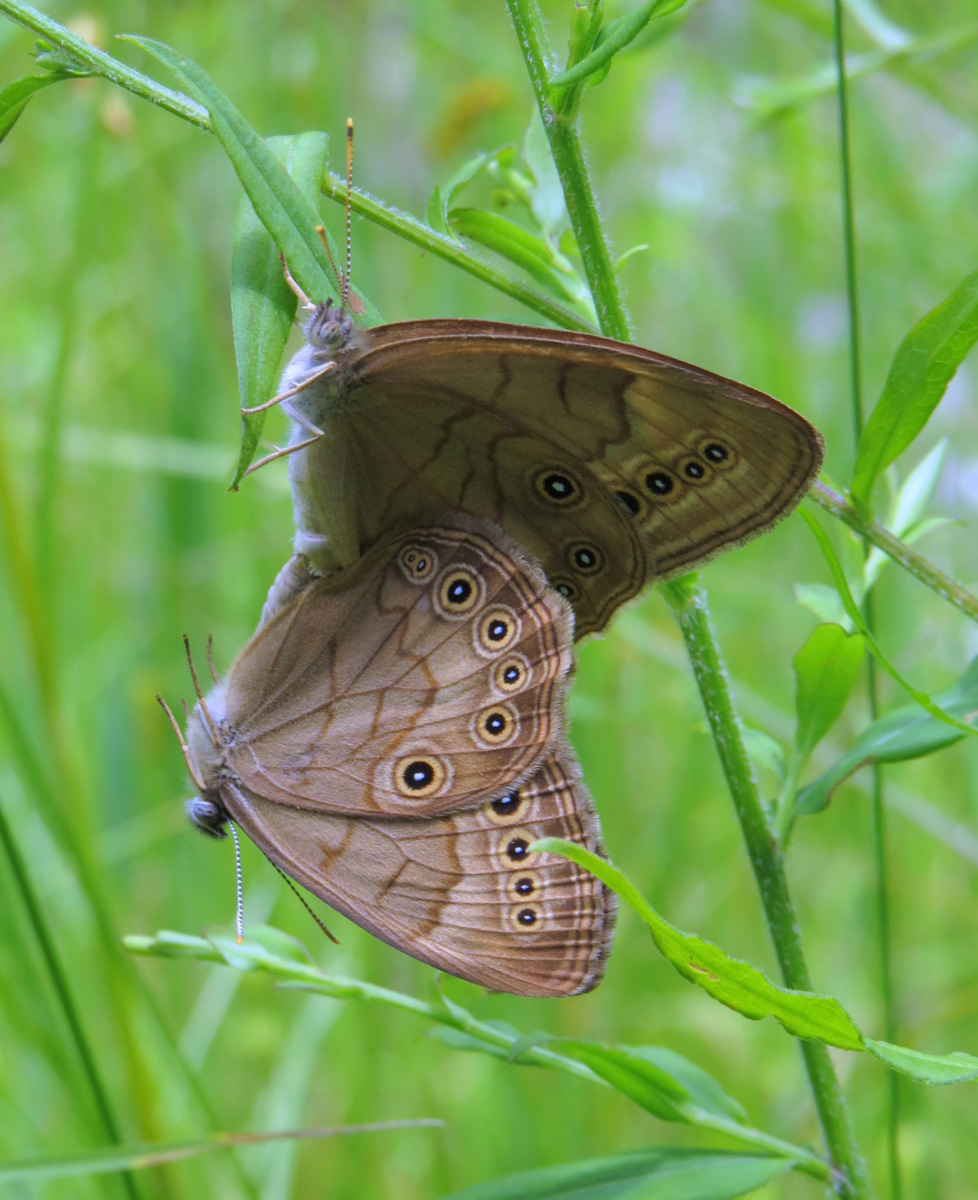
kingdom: Animalia
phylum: Arthropoda
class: Insecta
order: Lepidoptera
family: Nymphalidae
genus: Lethe
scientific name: Lethe eurydice
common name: Eyed brown
